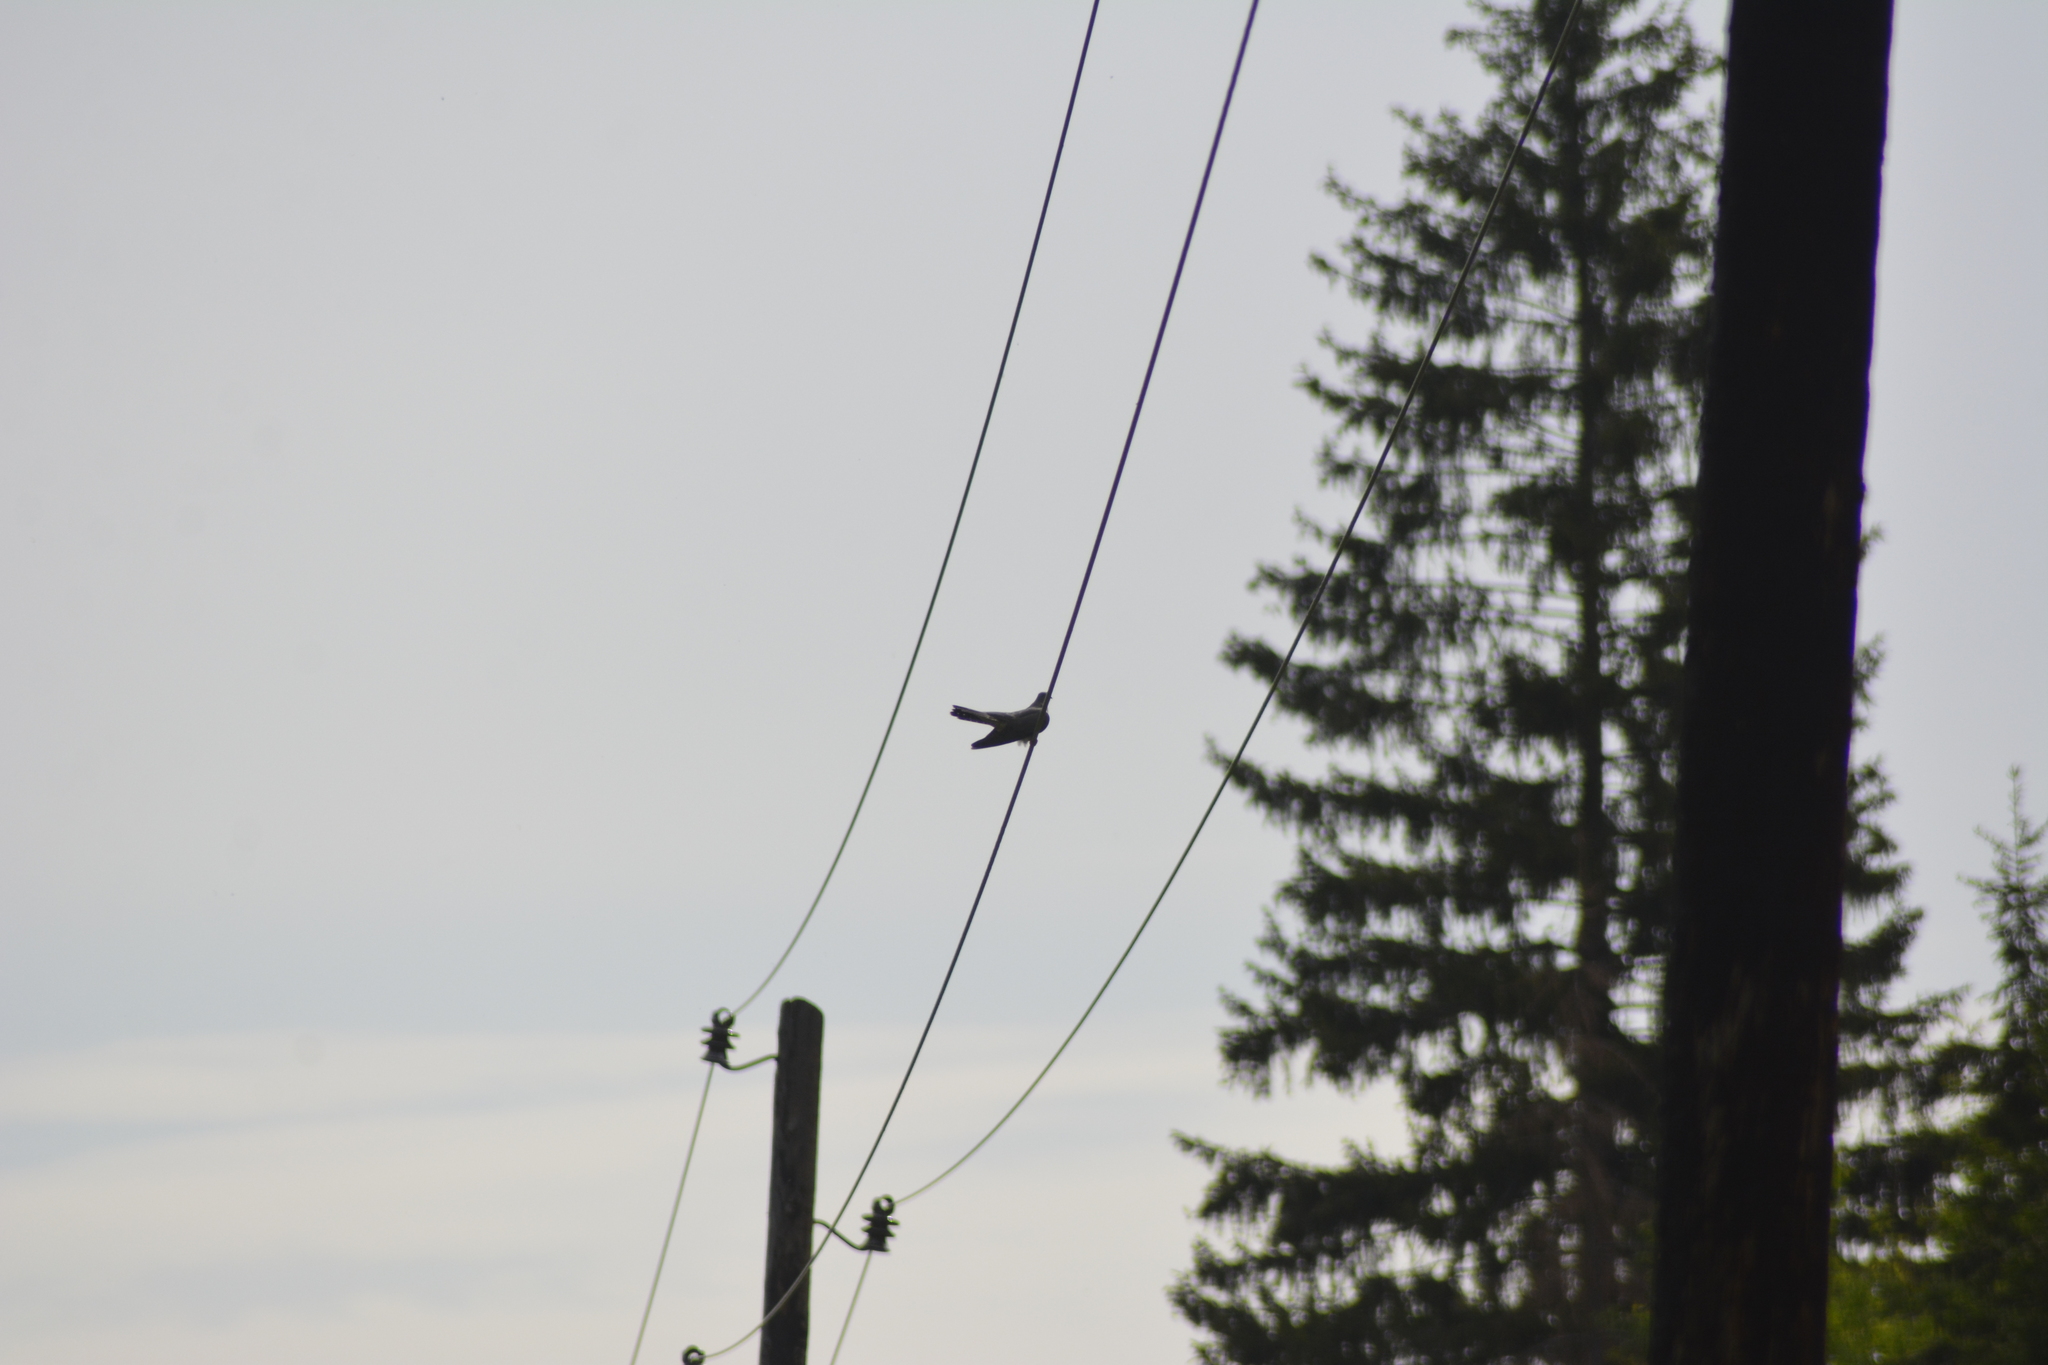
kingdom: Animalia
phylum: Chordata
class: Aves
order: Cuculiformes
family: Cuculidae
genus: Cuculus
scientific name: Cuculus canorus
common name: Common cuckoo
